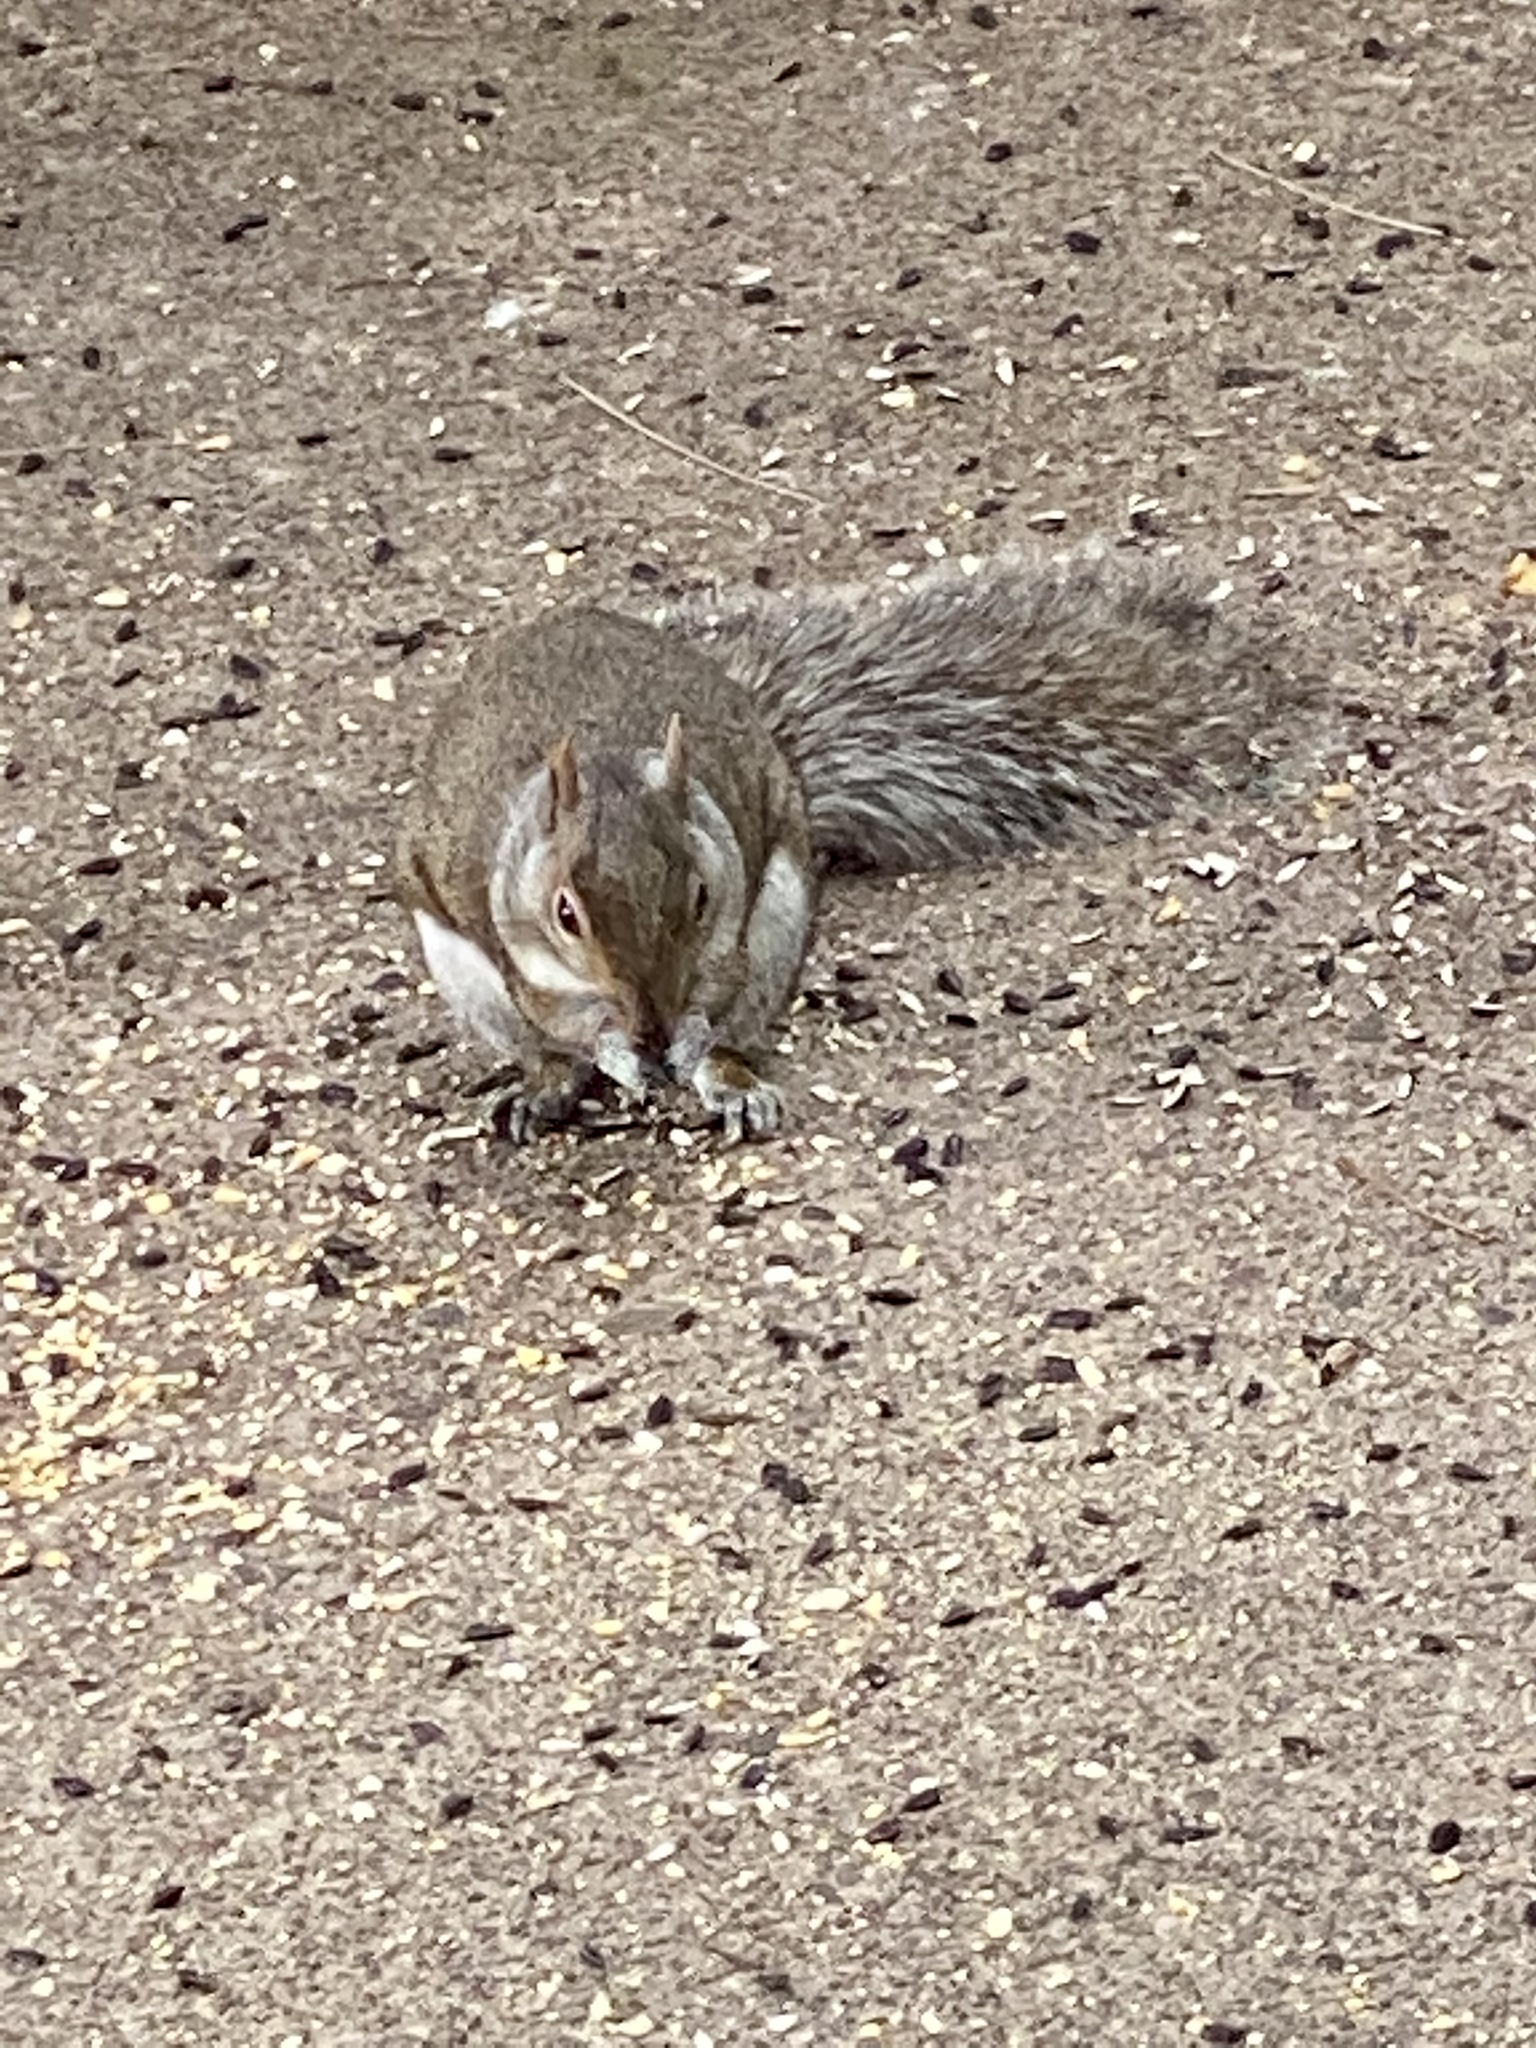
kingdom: Animalia
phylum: Chordata
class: Mammalia
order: Rodentia
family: Sciuridae
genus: Sciurus
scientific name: Sciurus carolinensis
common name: Eastern gray squirrel
